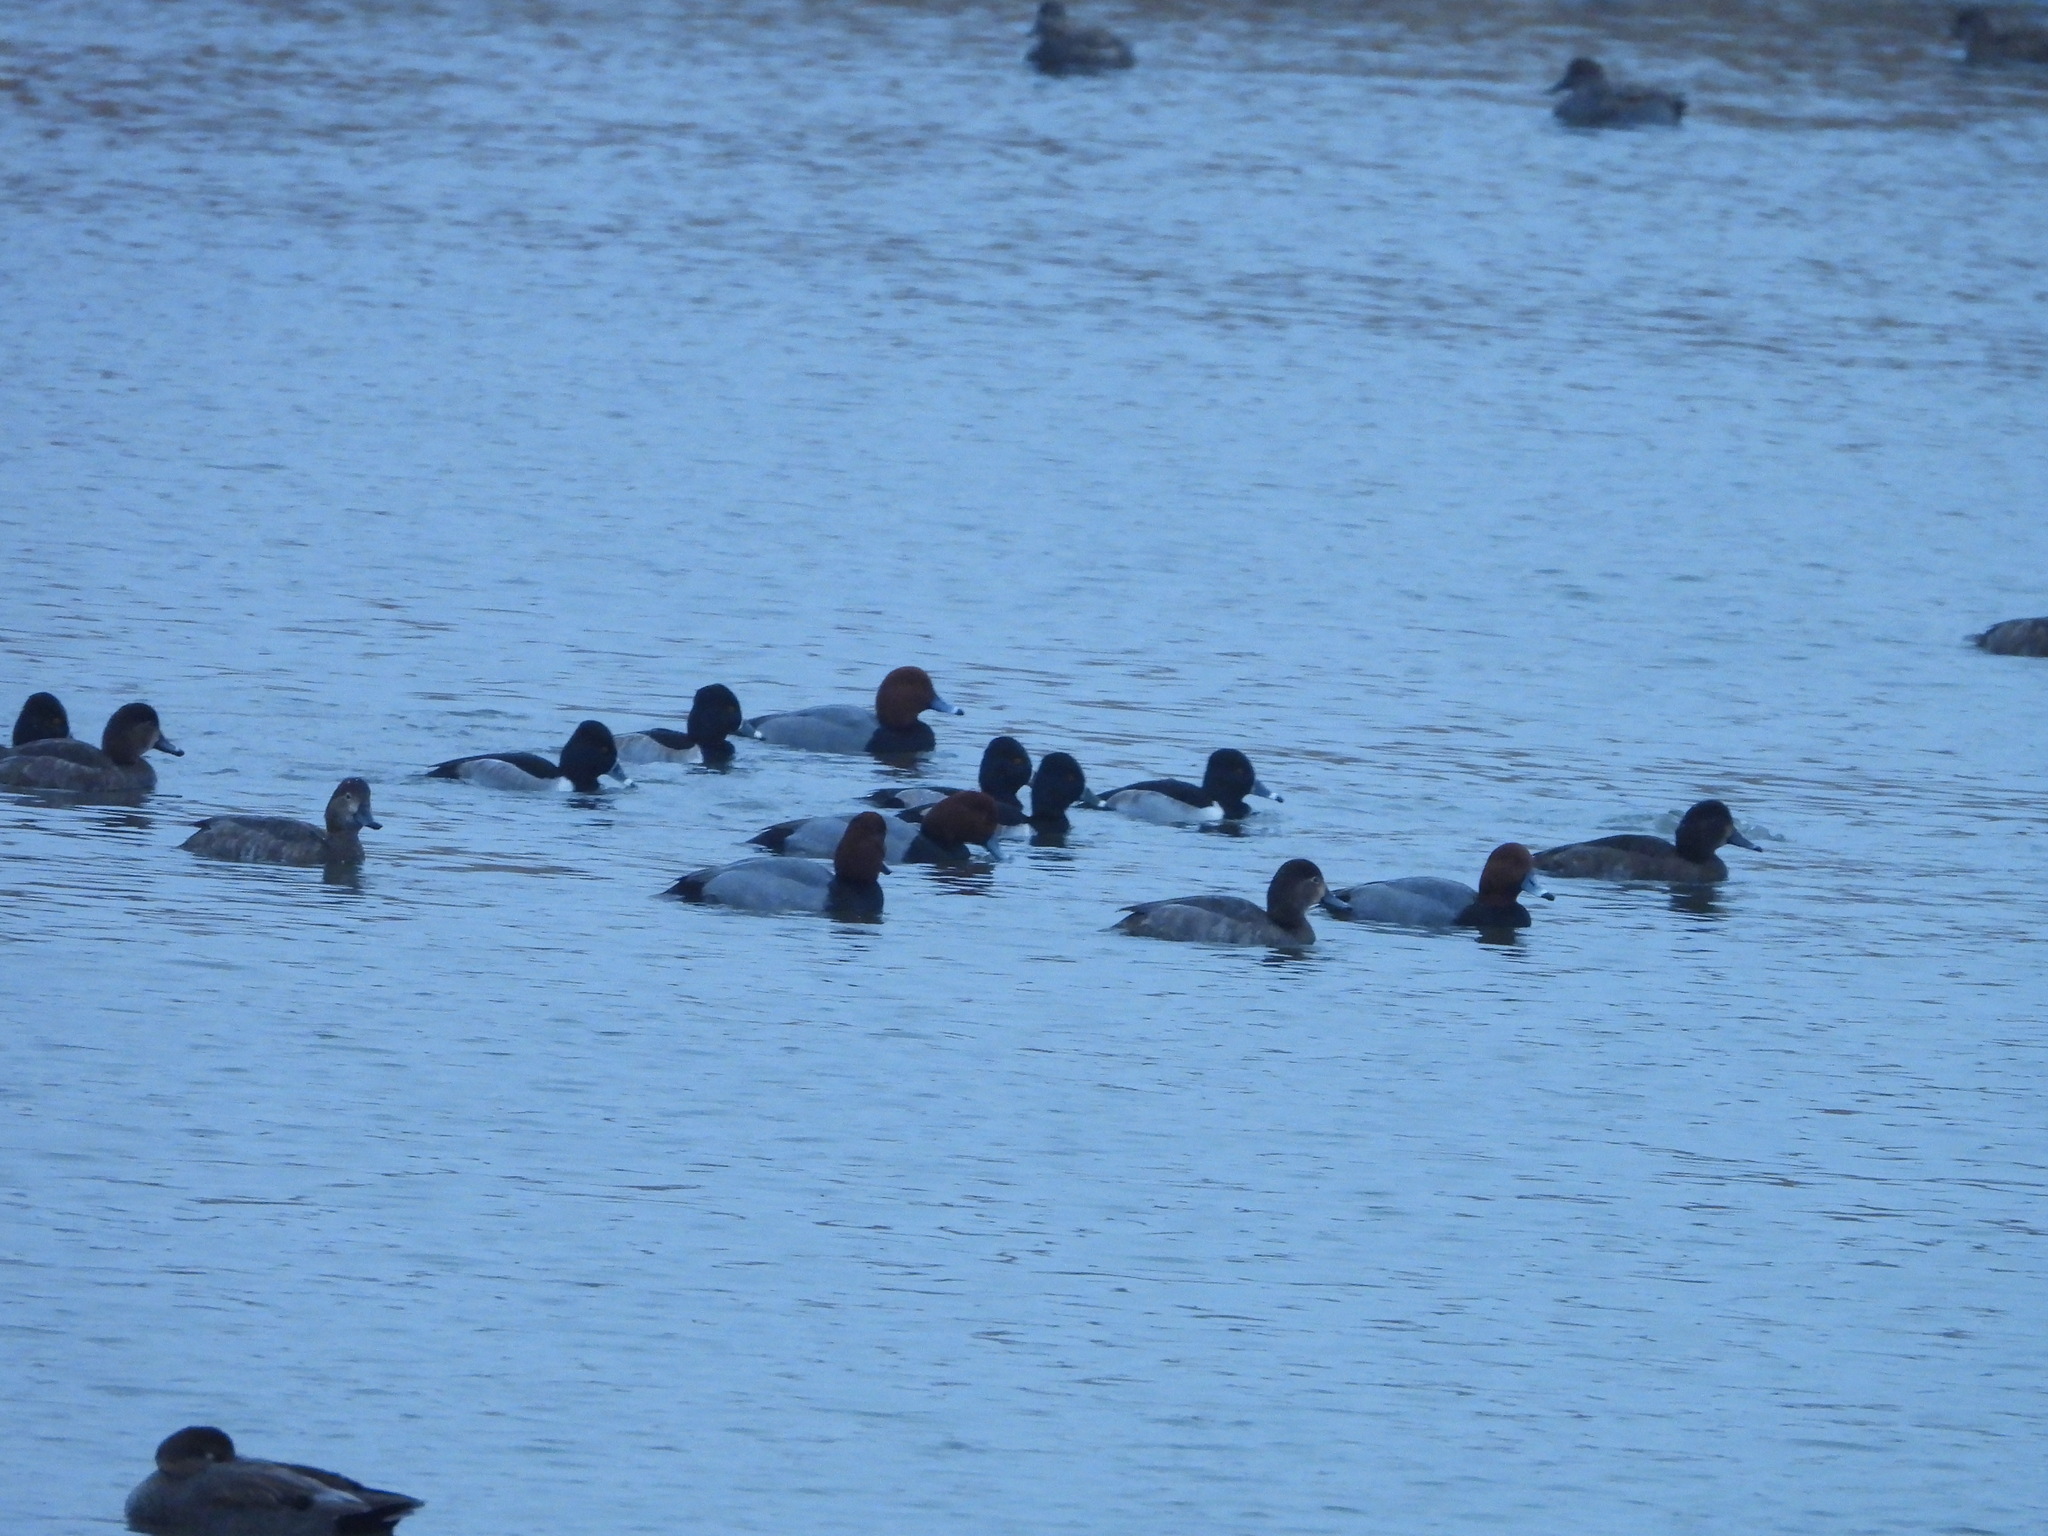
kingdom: Animalia
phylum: Chordata
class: Aves
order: Anseriformes
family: Anatidae
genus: Aythya
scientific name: Aythya collaris
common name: Ring-necked duck
